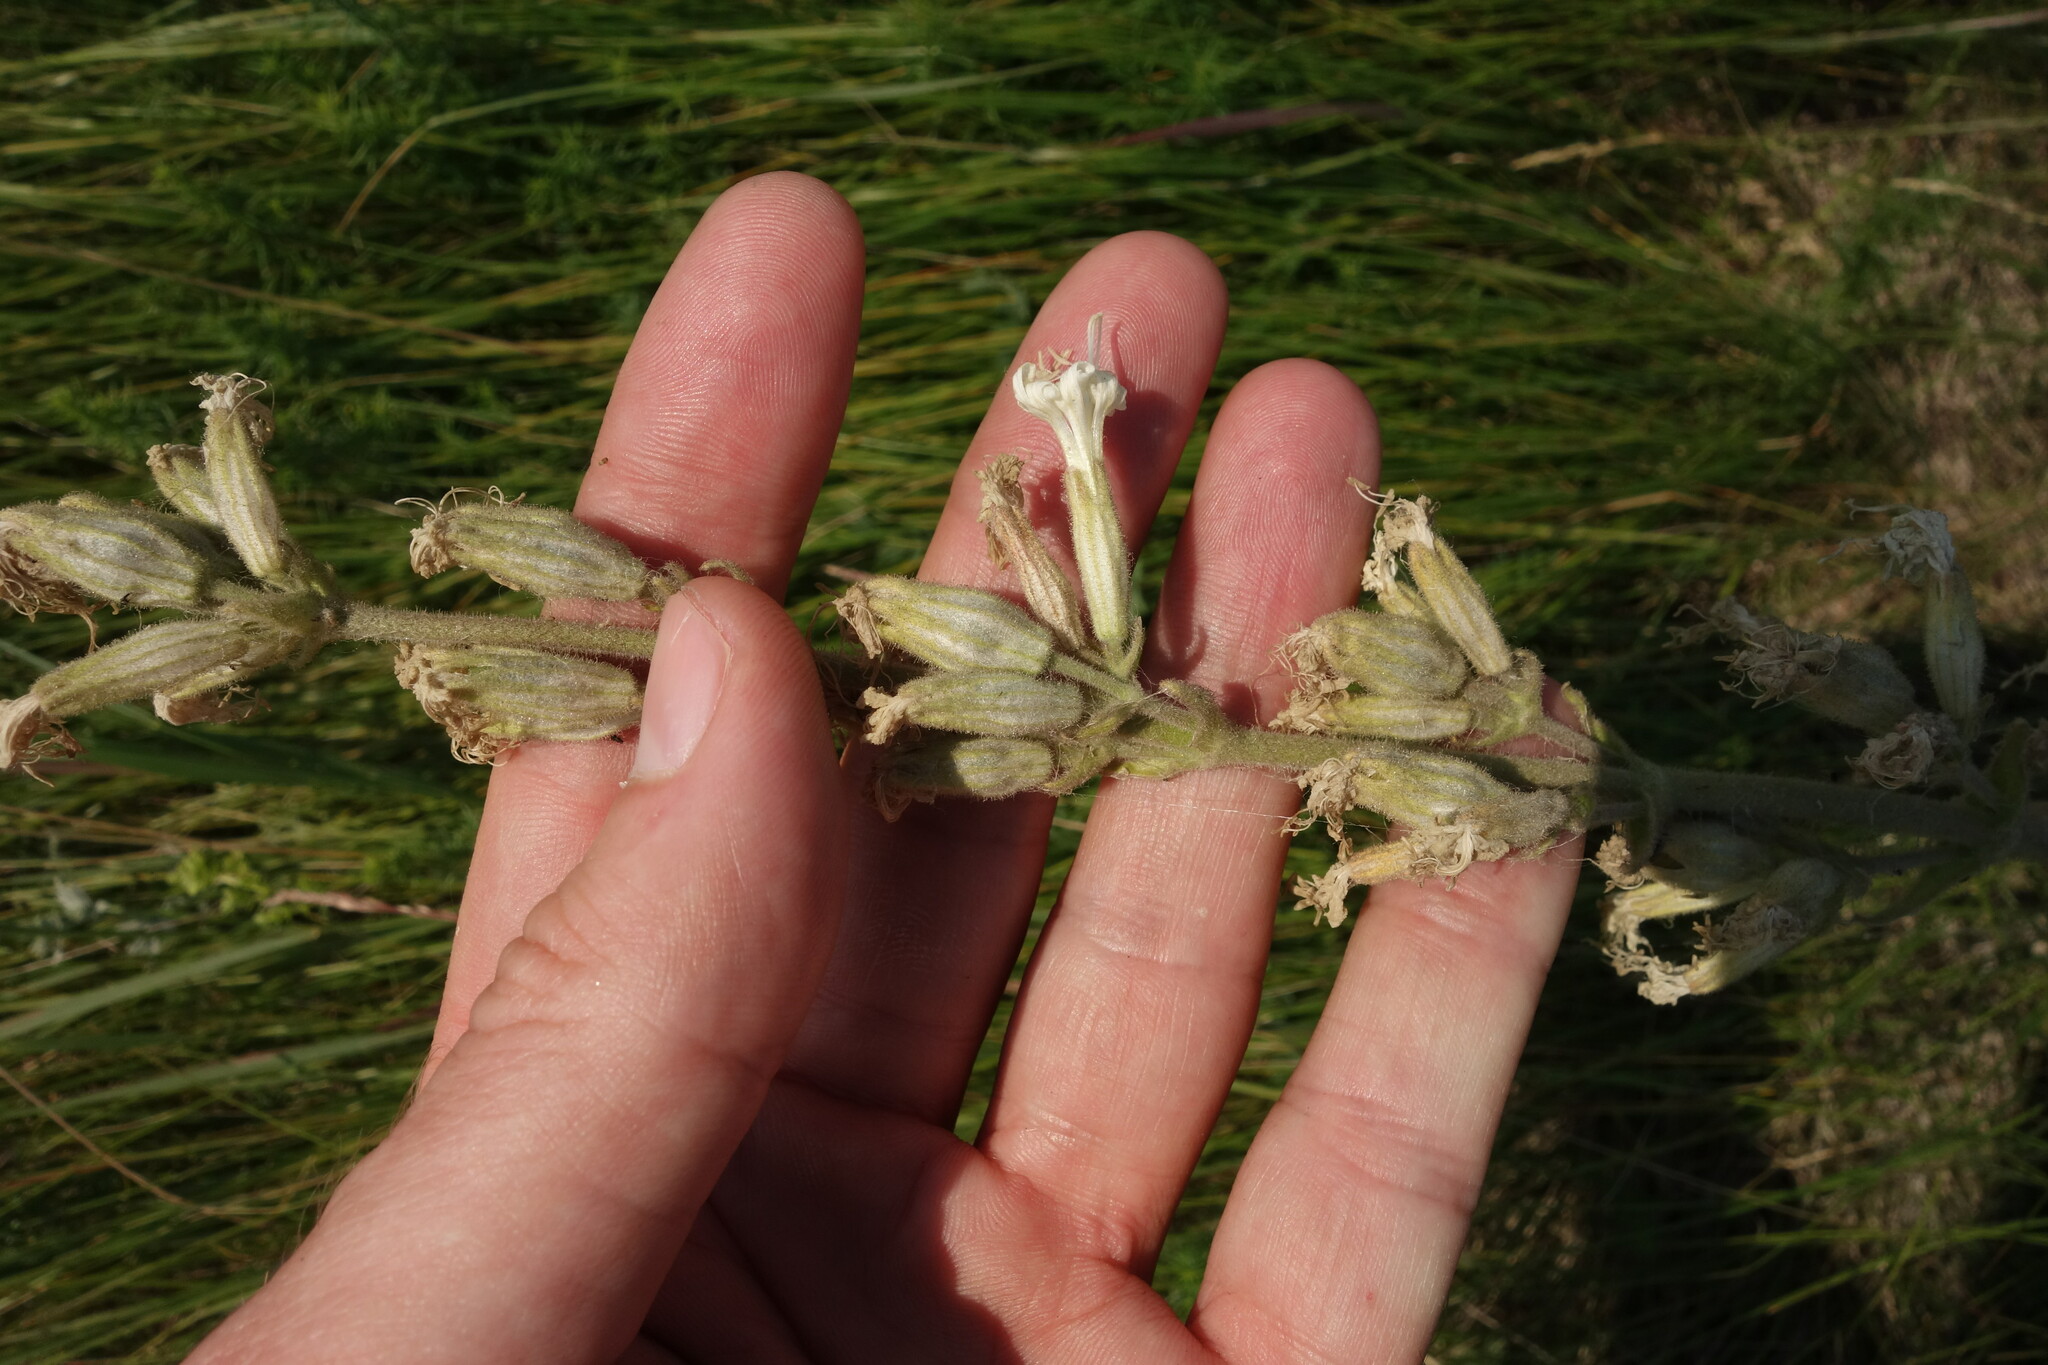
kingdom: Plantae
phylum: Tracheophyta
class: Magnoliopsida
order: Caryophyllales
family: Caryophyllaceae
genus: Silene
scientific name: Silene viscosa
